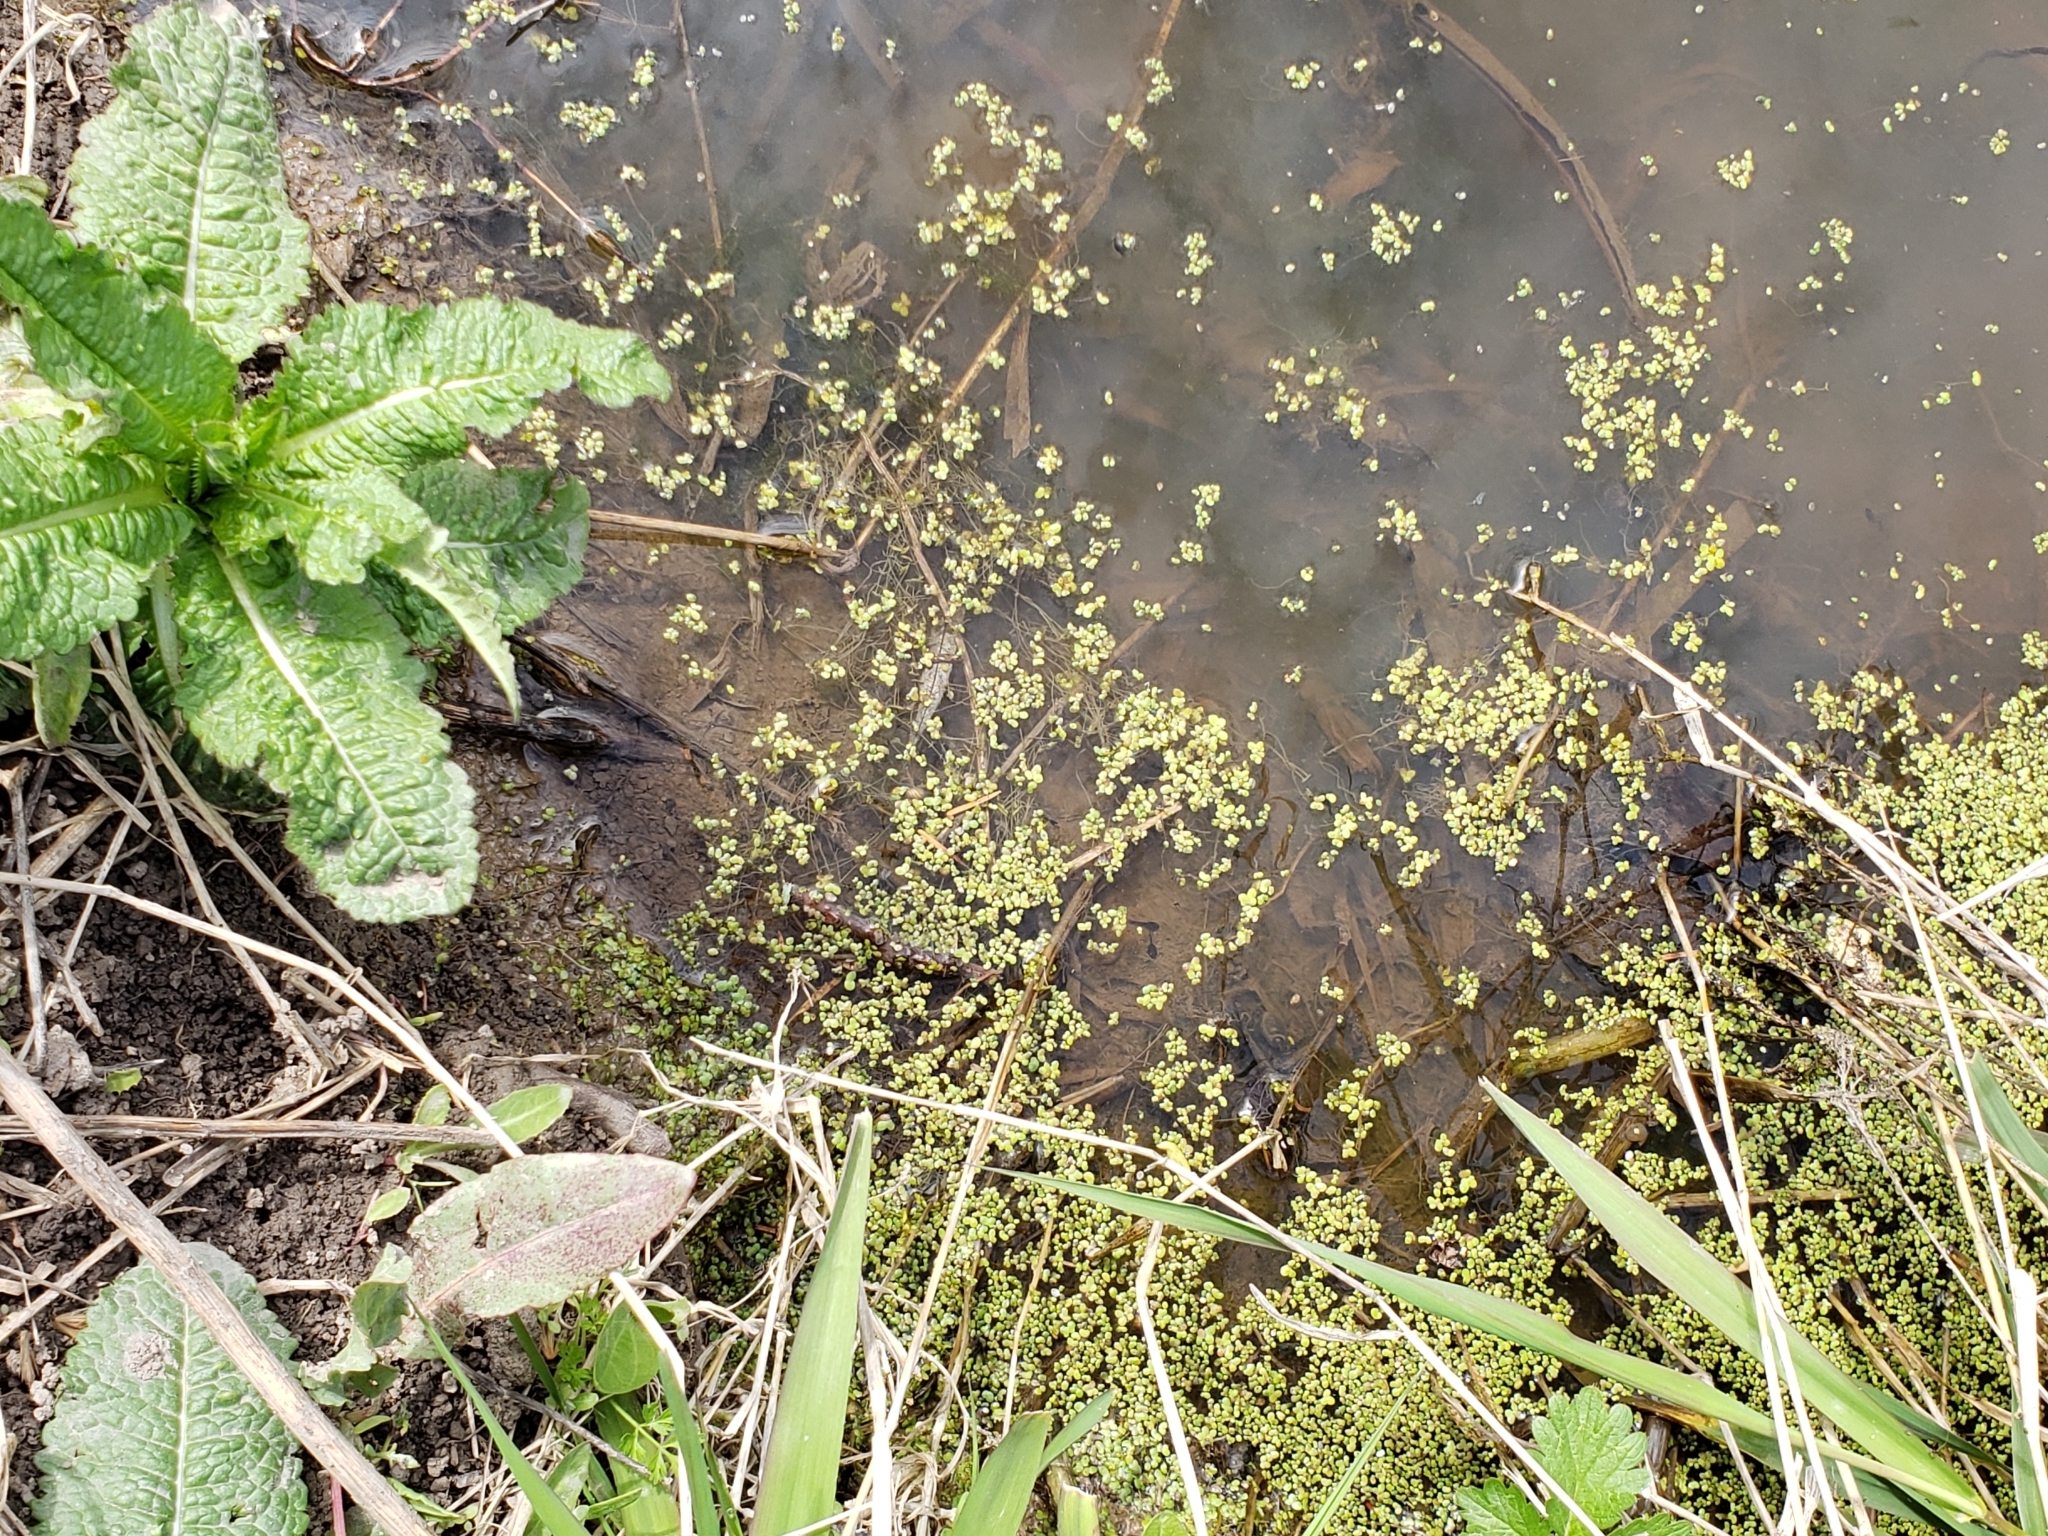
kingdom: Plantae
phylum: Tracheophyta
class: Liliopsida
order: Alismatales
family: Araceae
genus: Lemna
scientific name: Lemna minor
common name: Common duckweed
